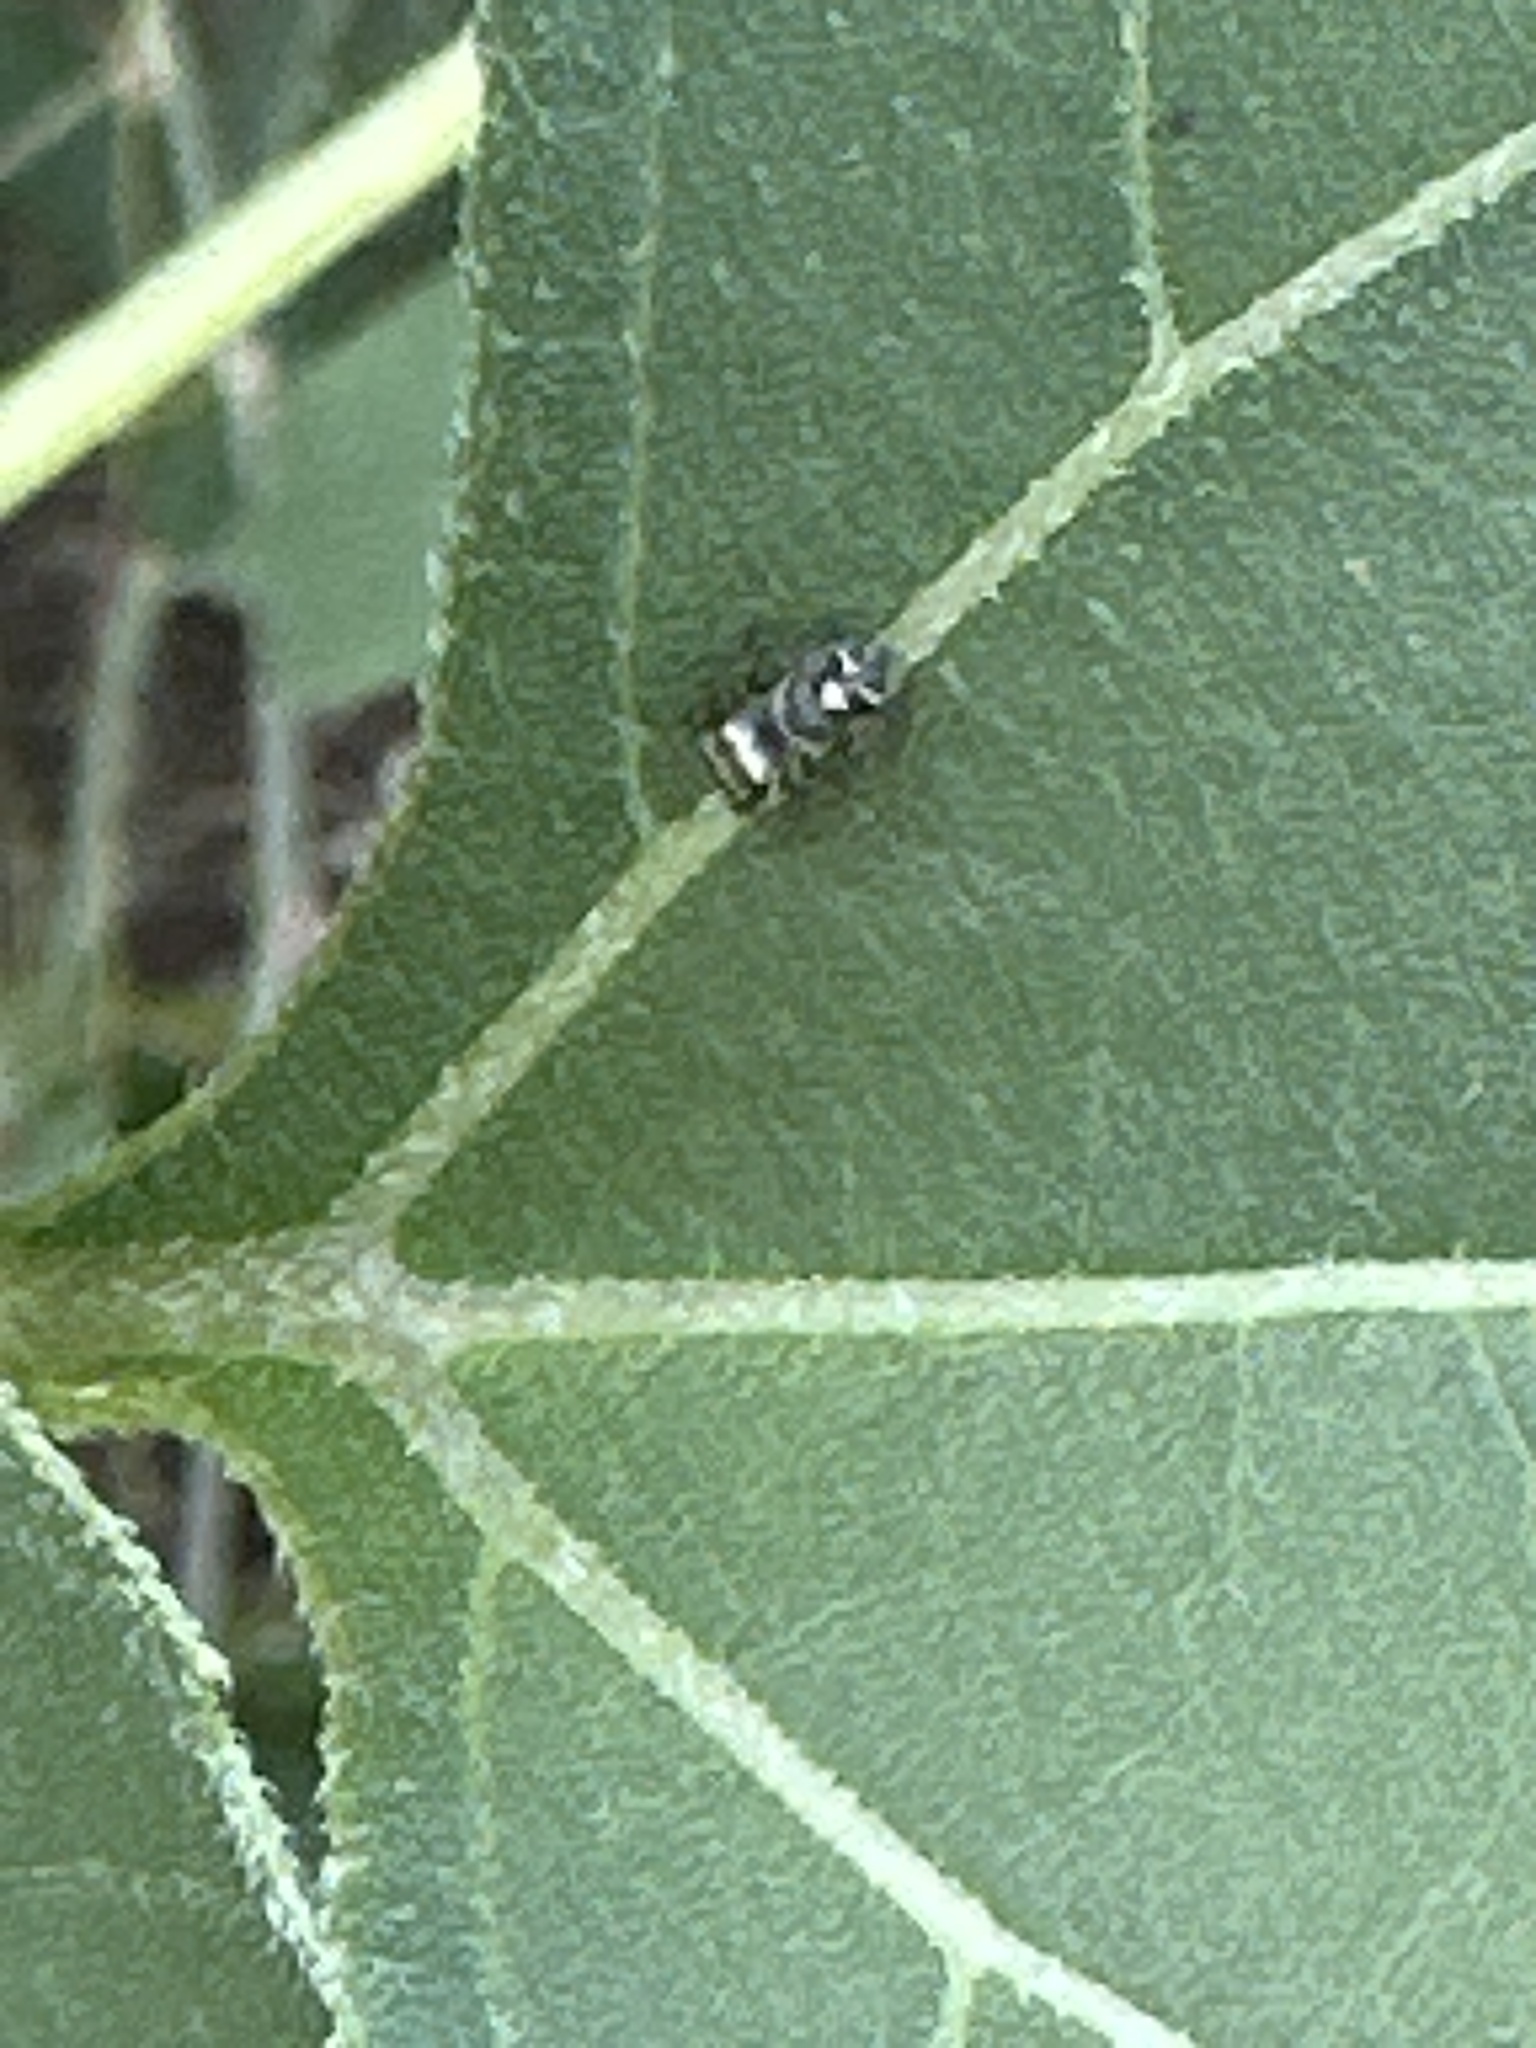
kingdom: Animalia
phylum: Arthropoda
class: Arachnida
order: Araneae
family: Salticidae
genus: Phidippus
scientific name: Phidippus audax
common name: Bold jumper
